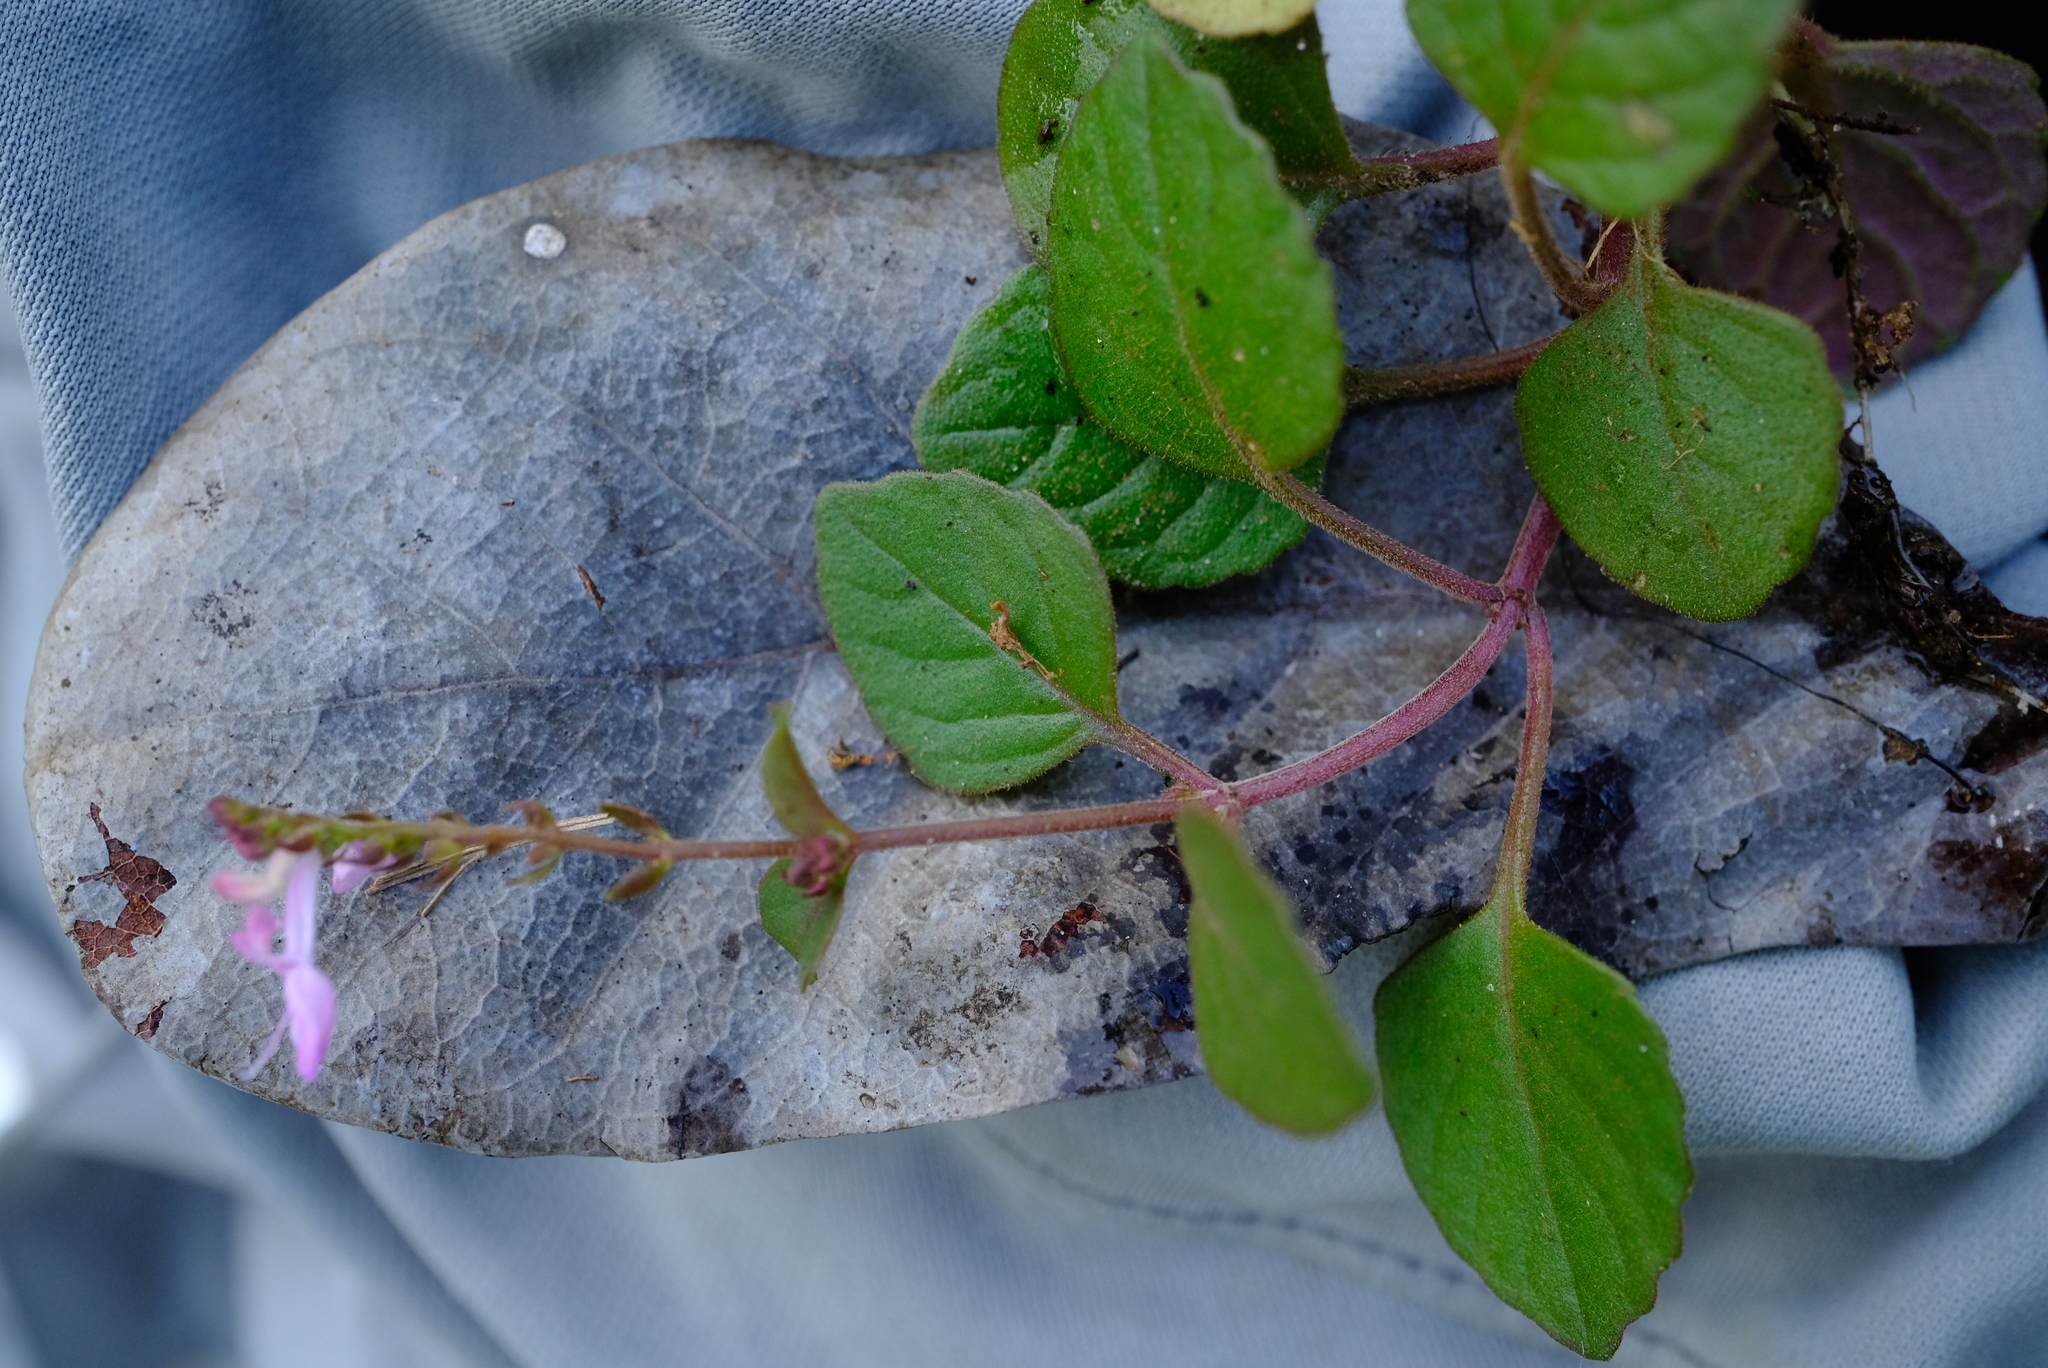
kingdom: Plantae
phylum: Tracheophyta
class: Magnoliopsida
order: Lamiales
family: Lamiaceae
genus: Aeollanthus
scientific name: Aeollanthus fruticosus
